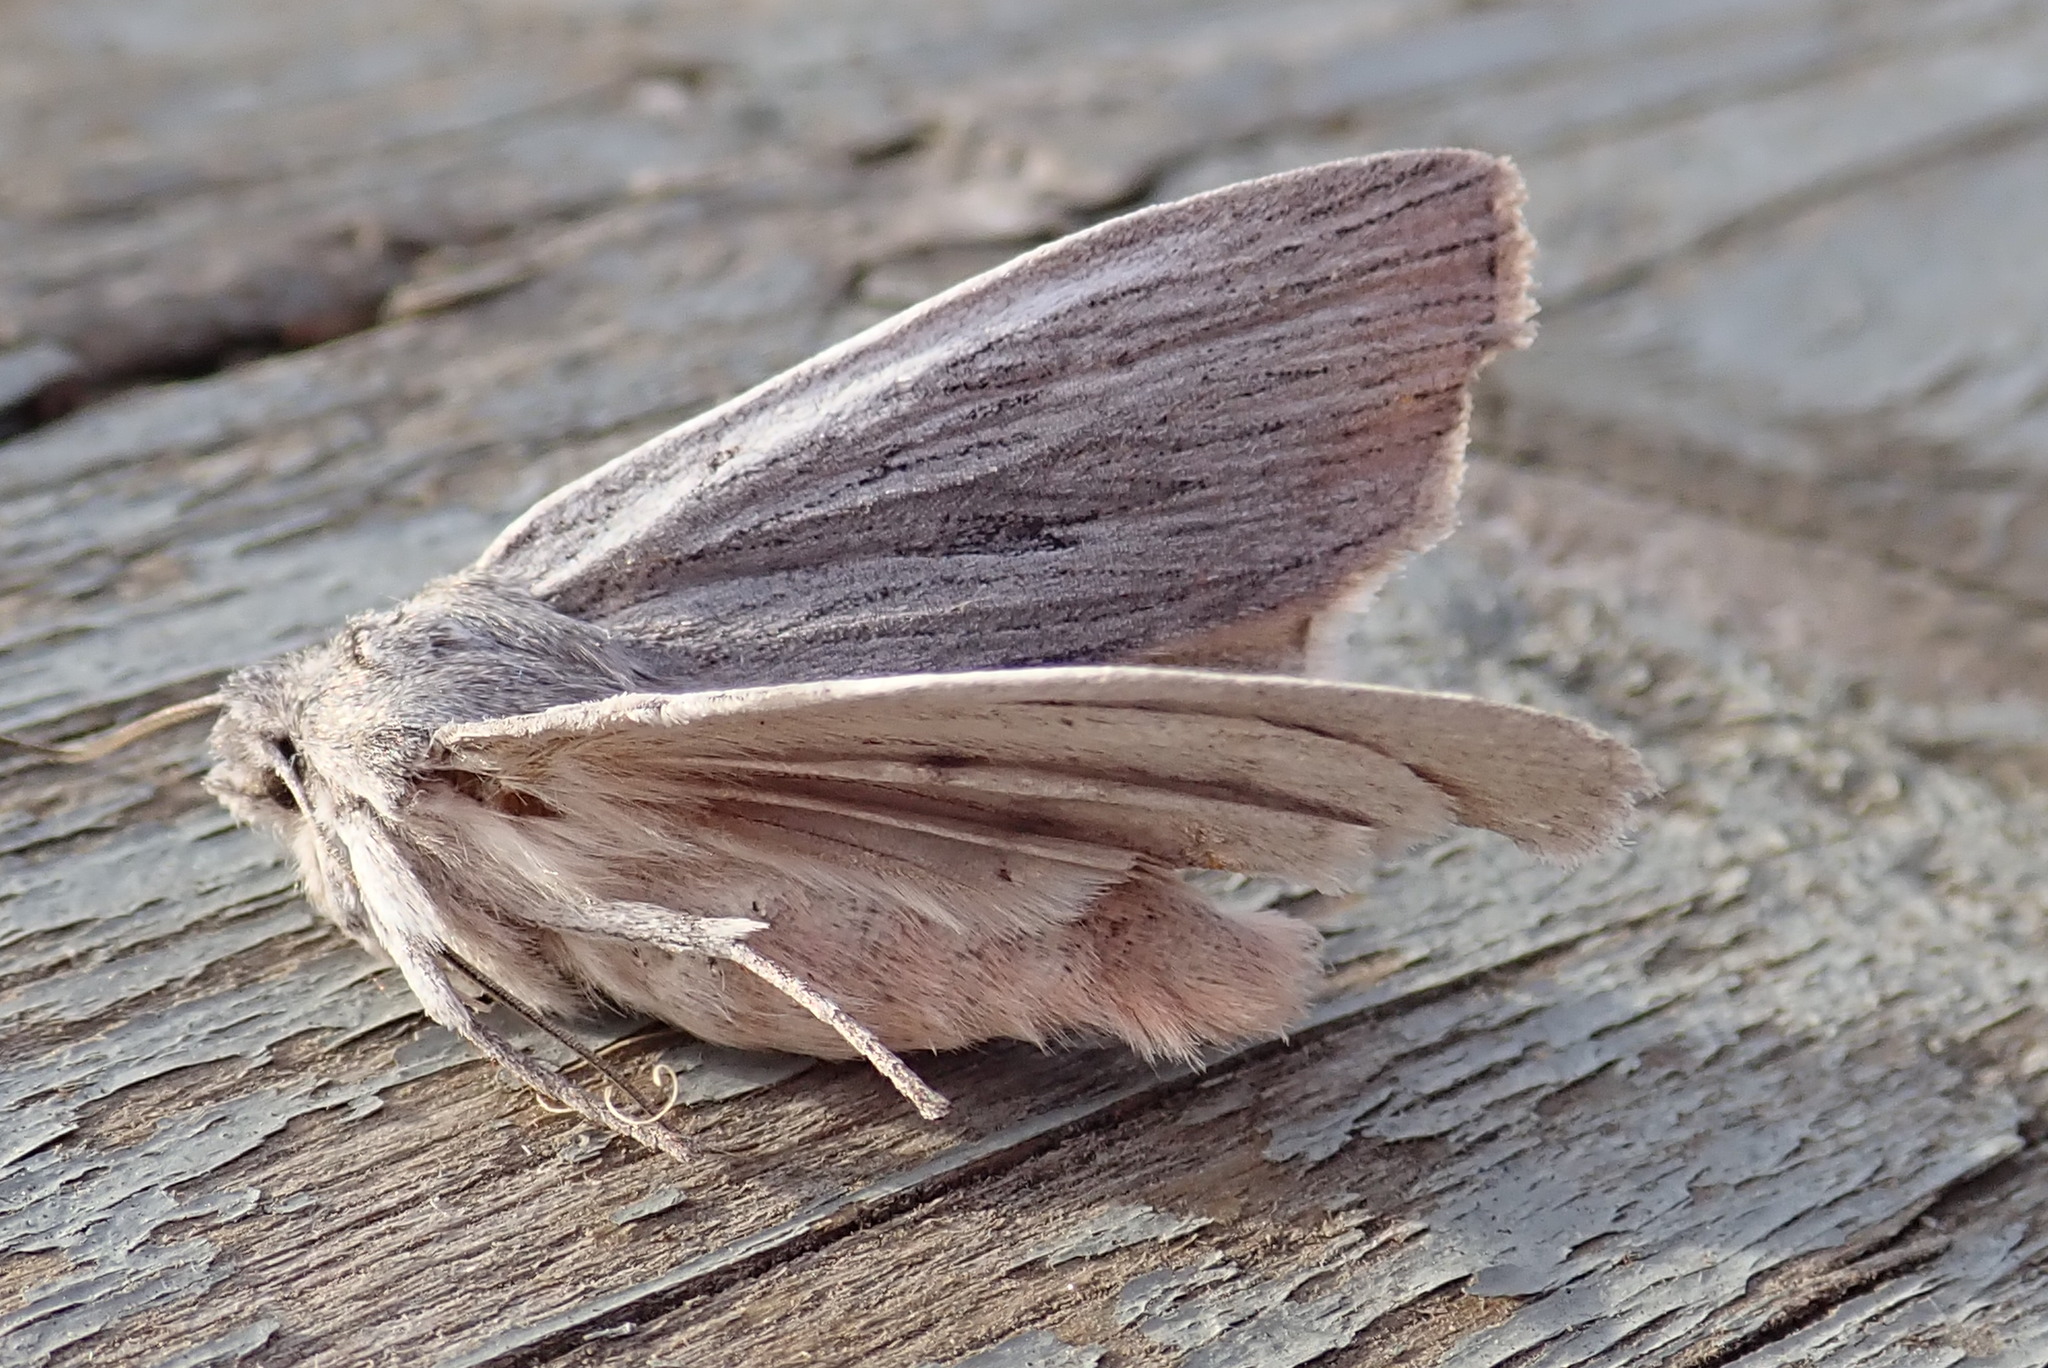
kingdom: Animalia
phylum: Arthropoda
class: Insecta
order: Lepidoptera
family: Noctuidae
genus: Lithophane
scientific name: Lithophane fagina
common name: Hoary pinion moth
